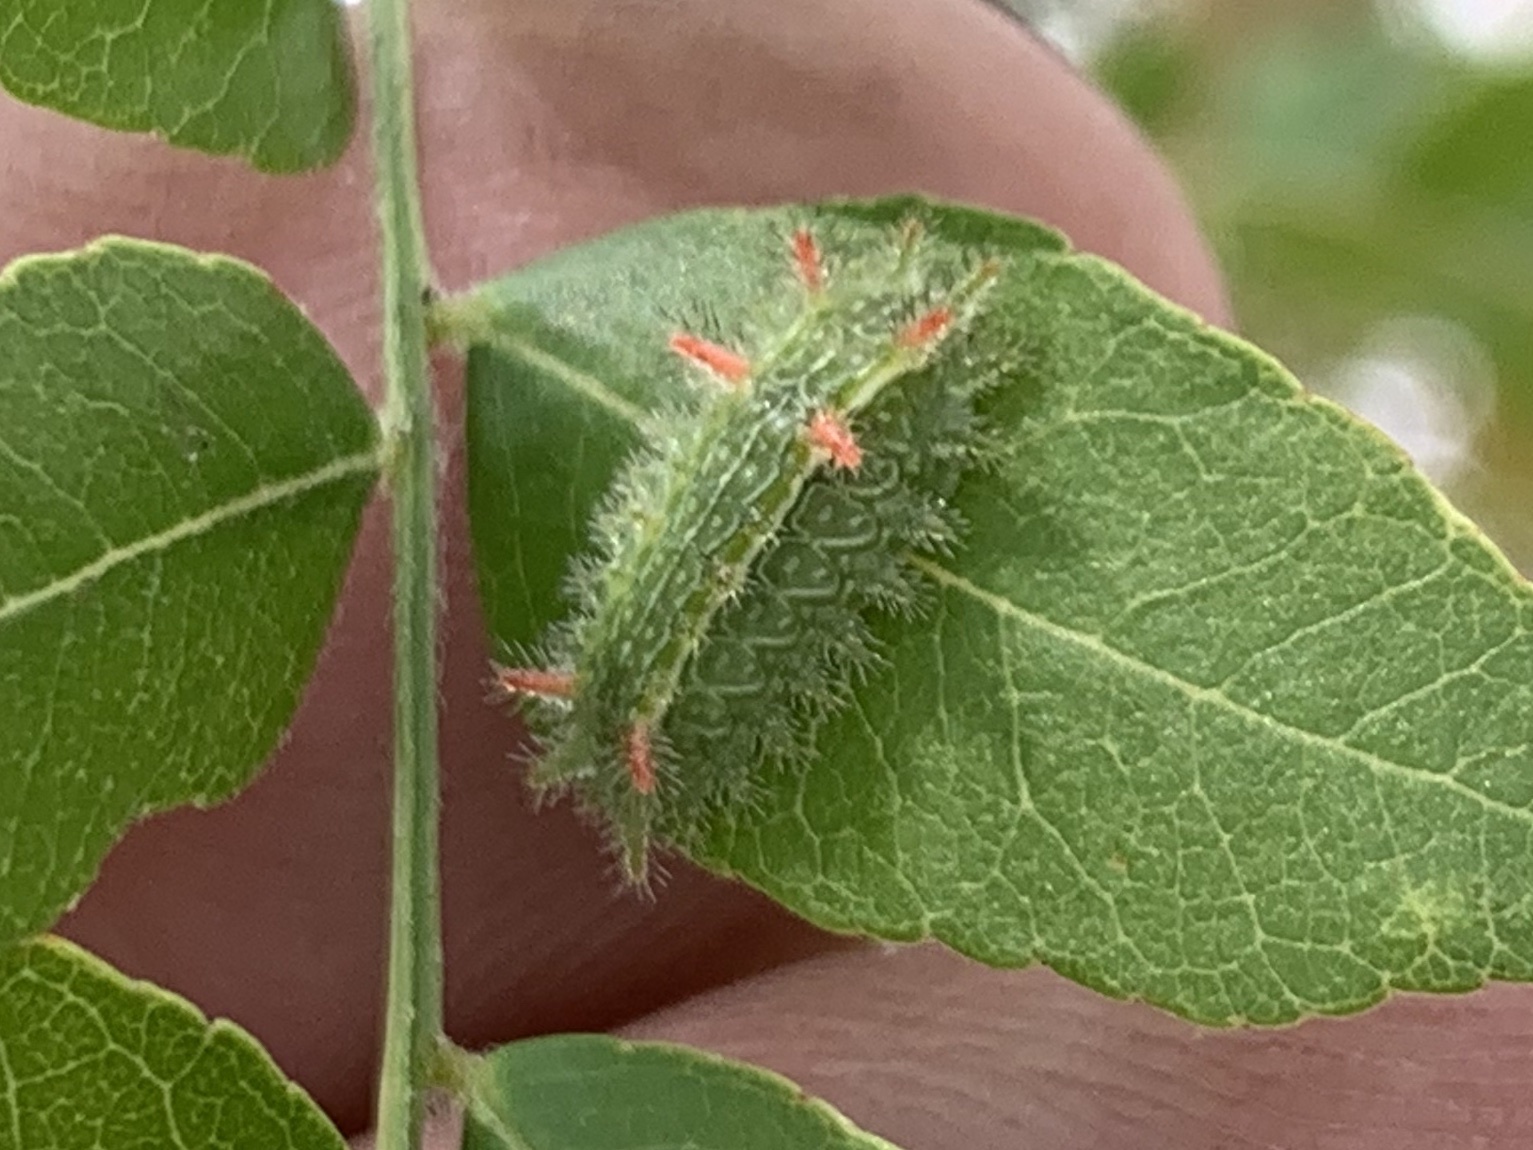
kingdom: Animalia
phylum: Arthropoda
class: Insecta
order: Lepidoptera
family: Limacodidae
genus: Euclea
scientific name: Euclea incisa
